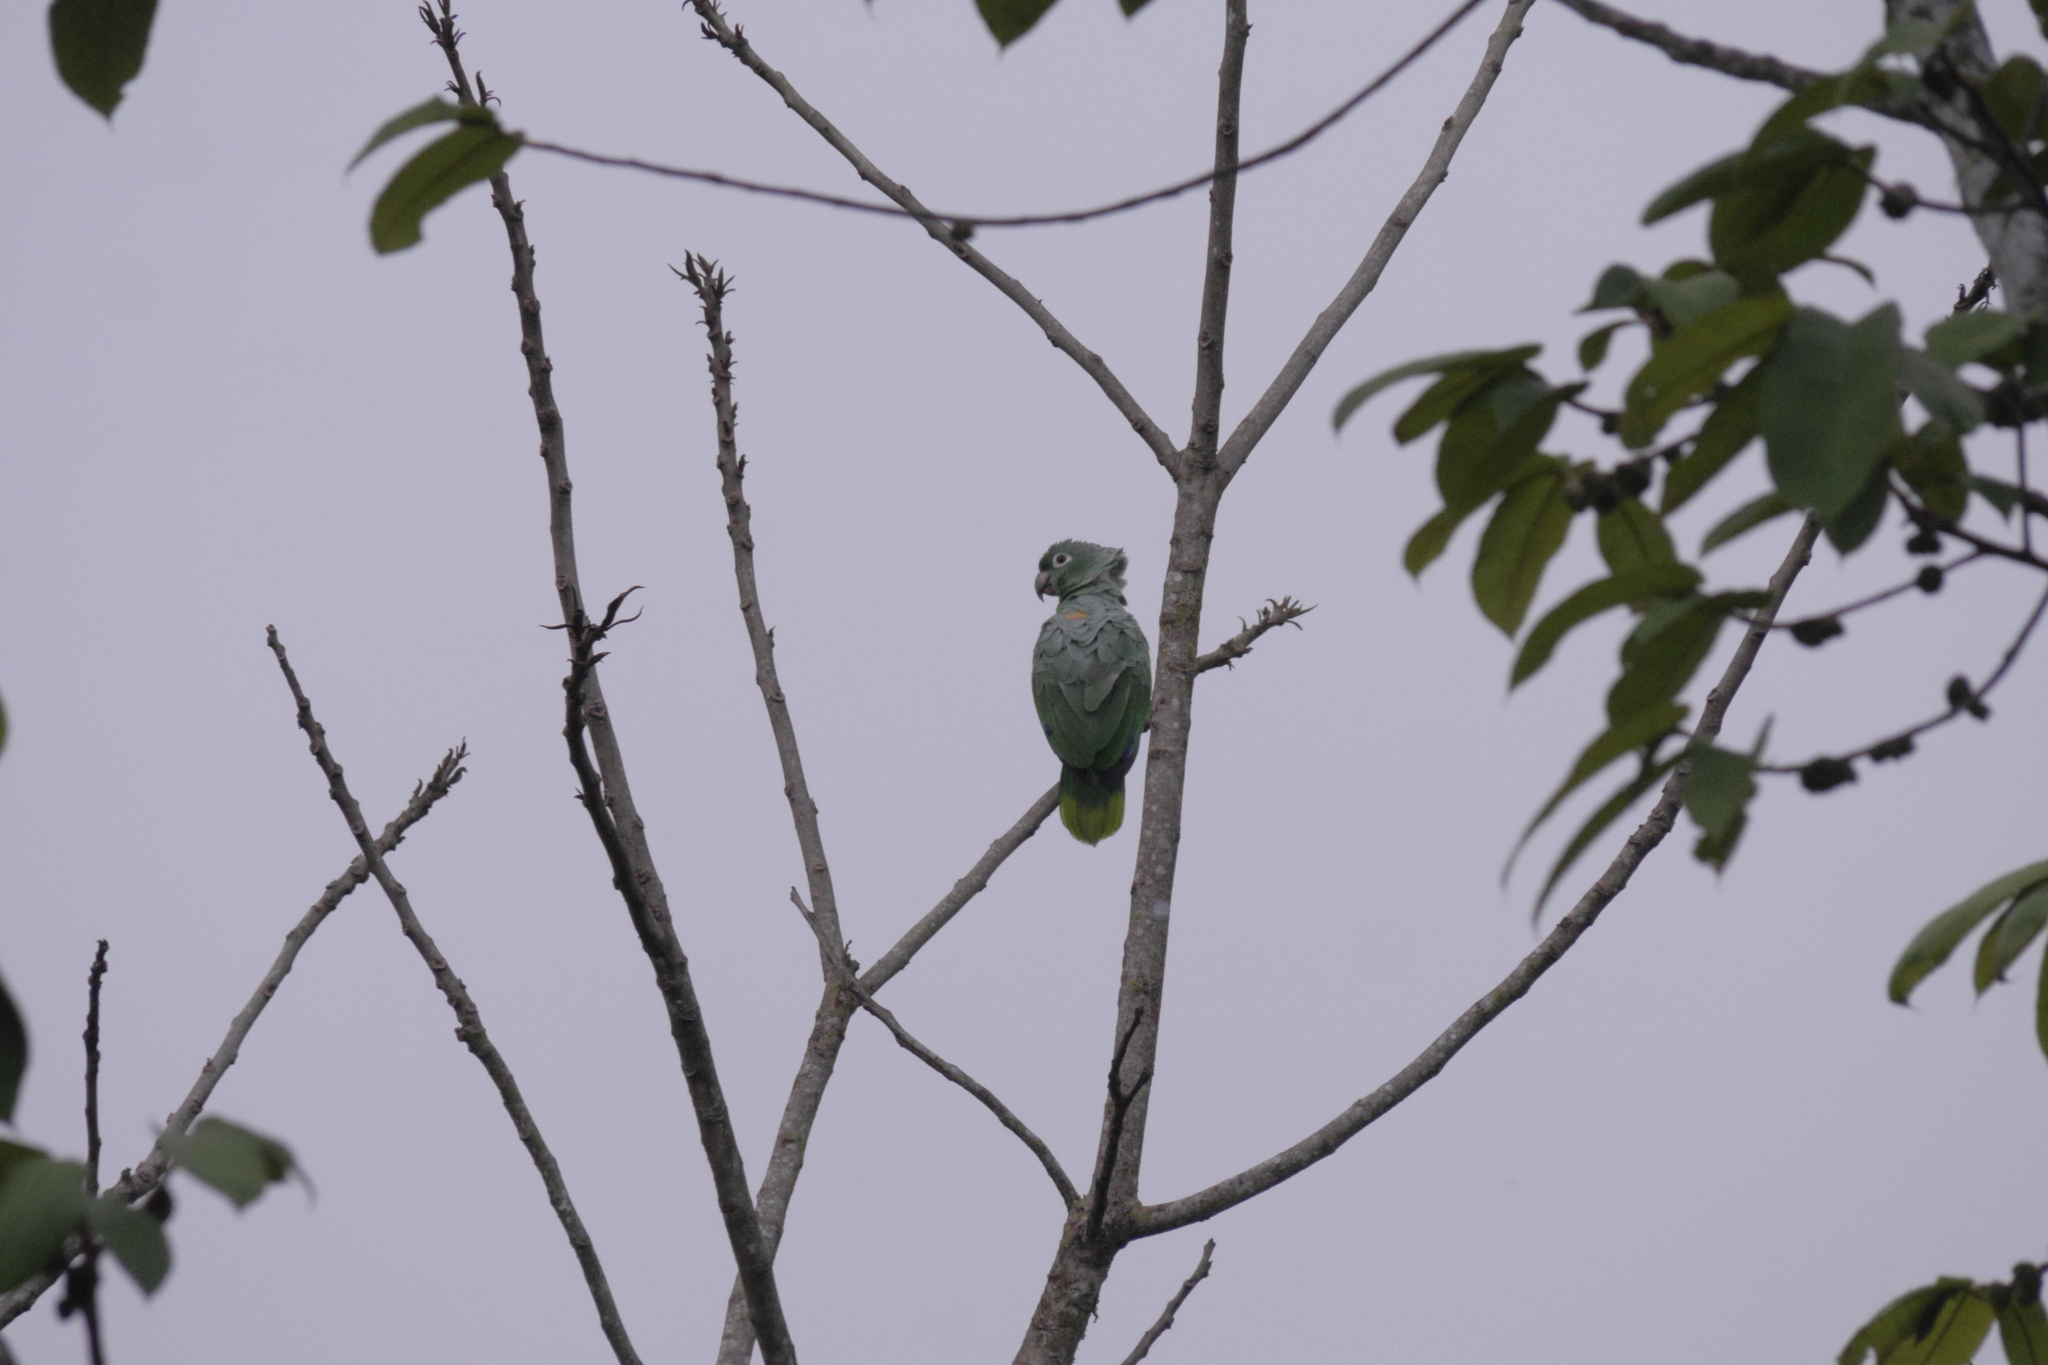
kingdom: Animalia
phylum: Chordata
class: Aves
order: Psittaciformes
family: Psittacidae
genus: Amazona
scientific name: Amazona farinosa
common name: Mealy parrot
